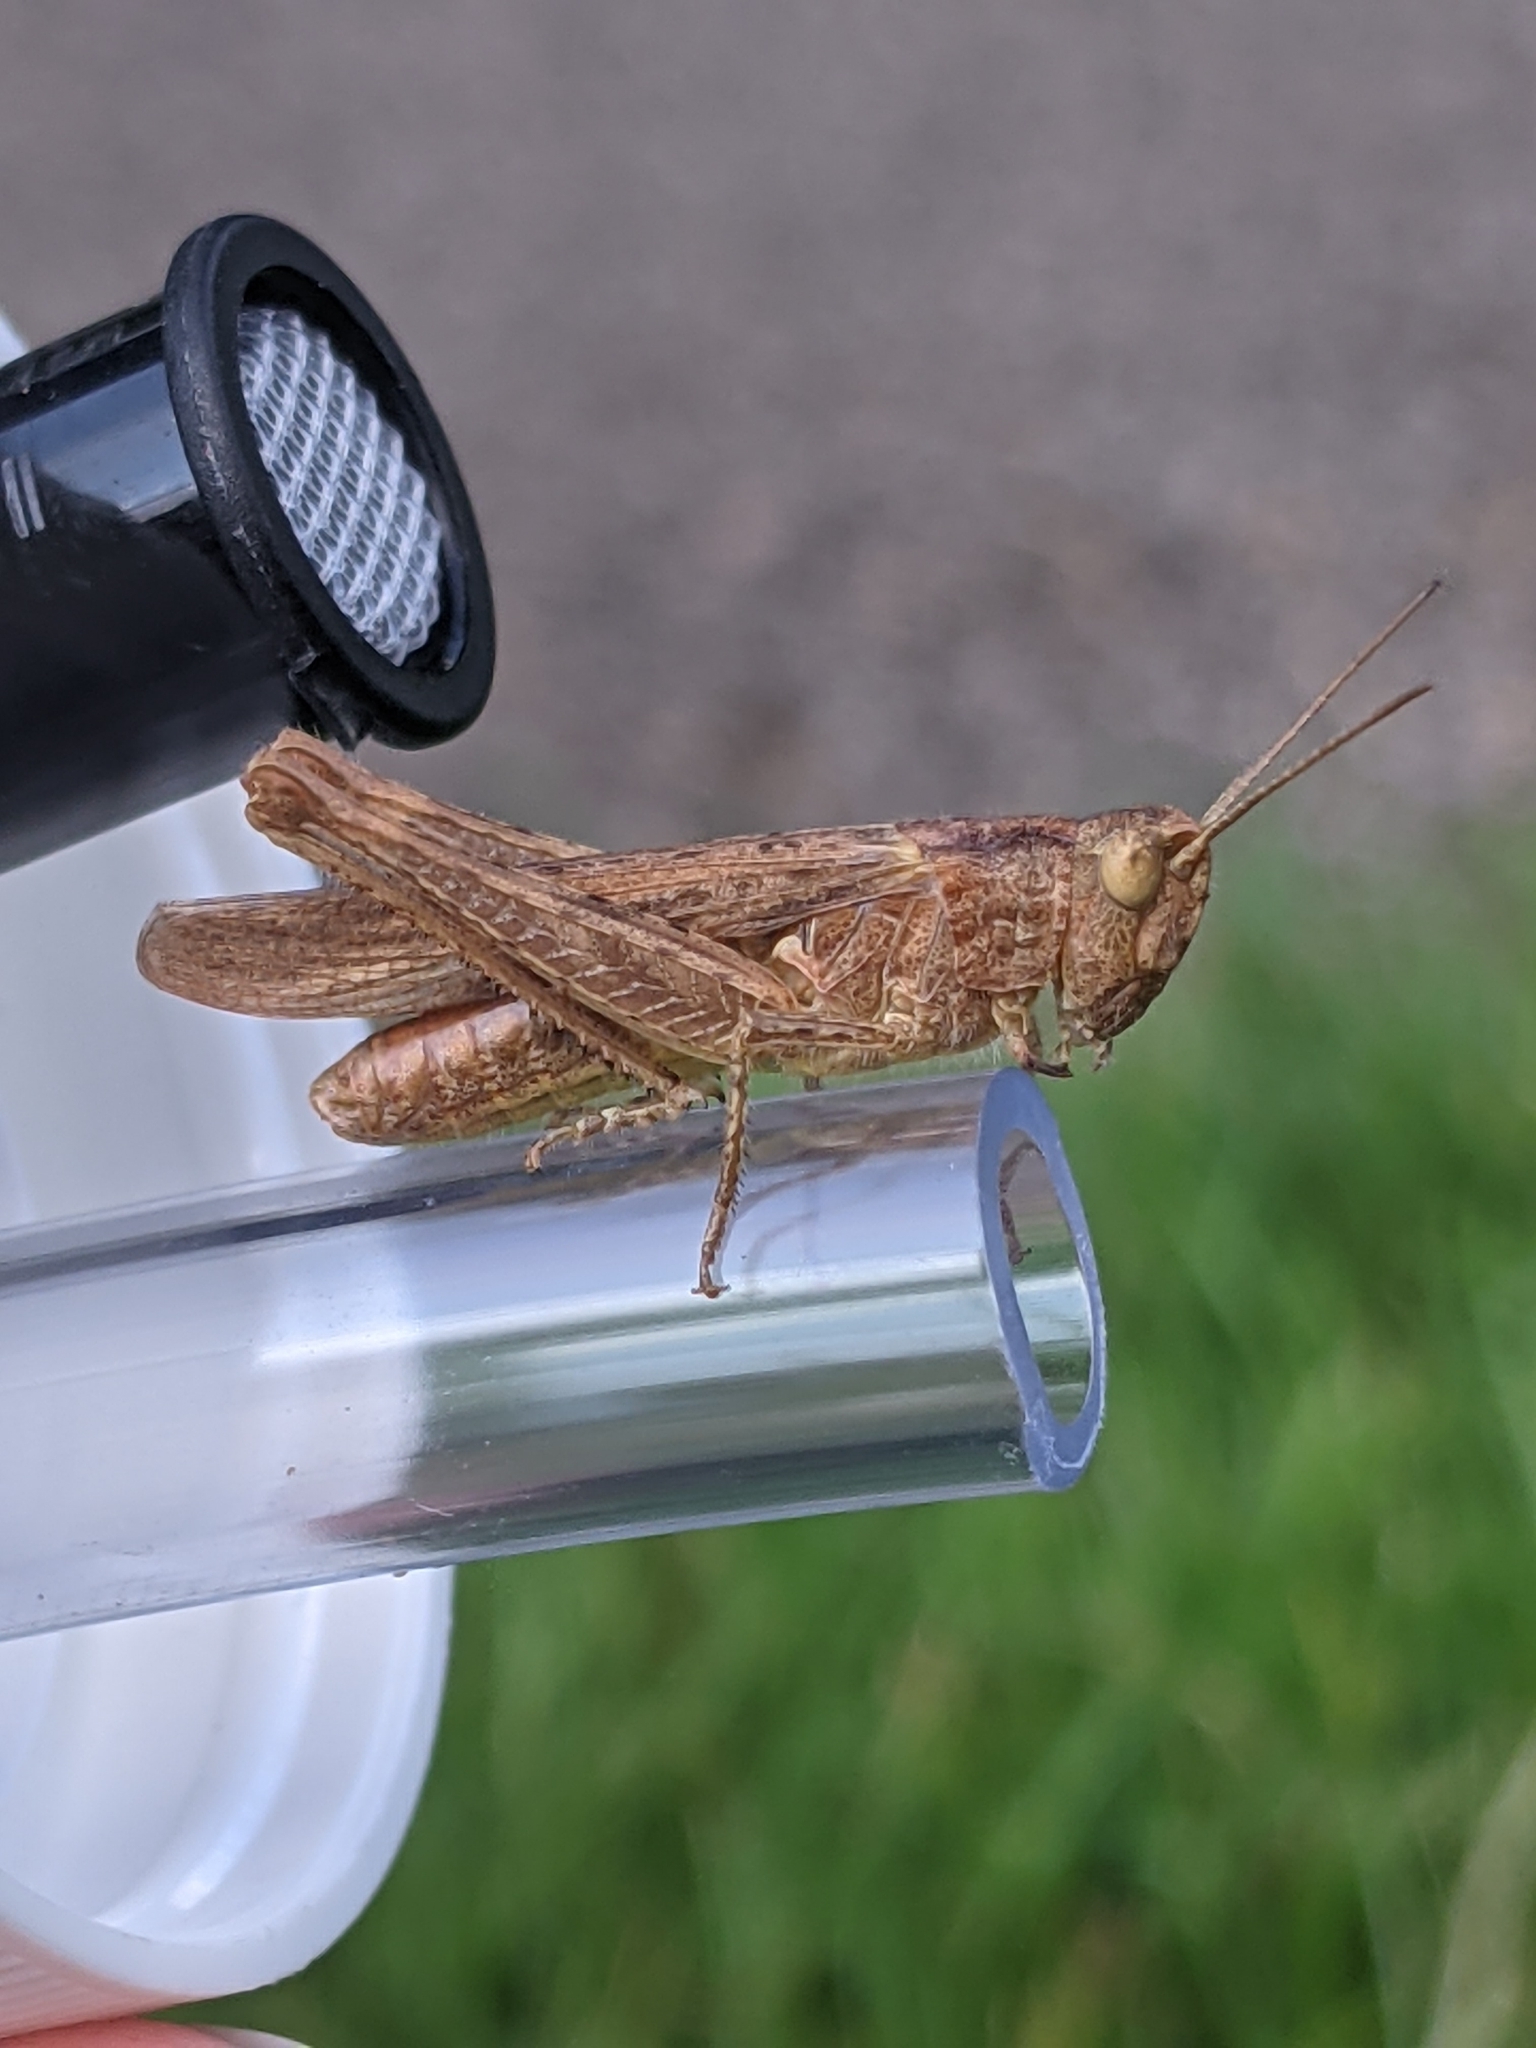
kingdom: Animalia
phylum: Arthropoda
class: Insecta
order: Orthoptera
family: Acrididae
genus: Chorthippus
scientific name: Chorthippus brunneus
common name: Field grasshopper
